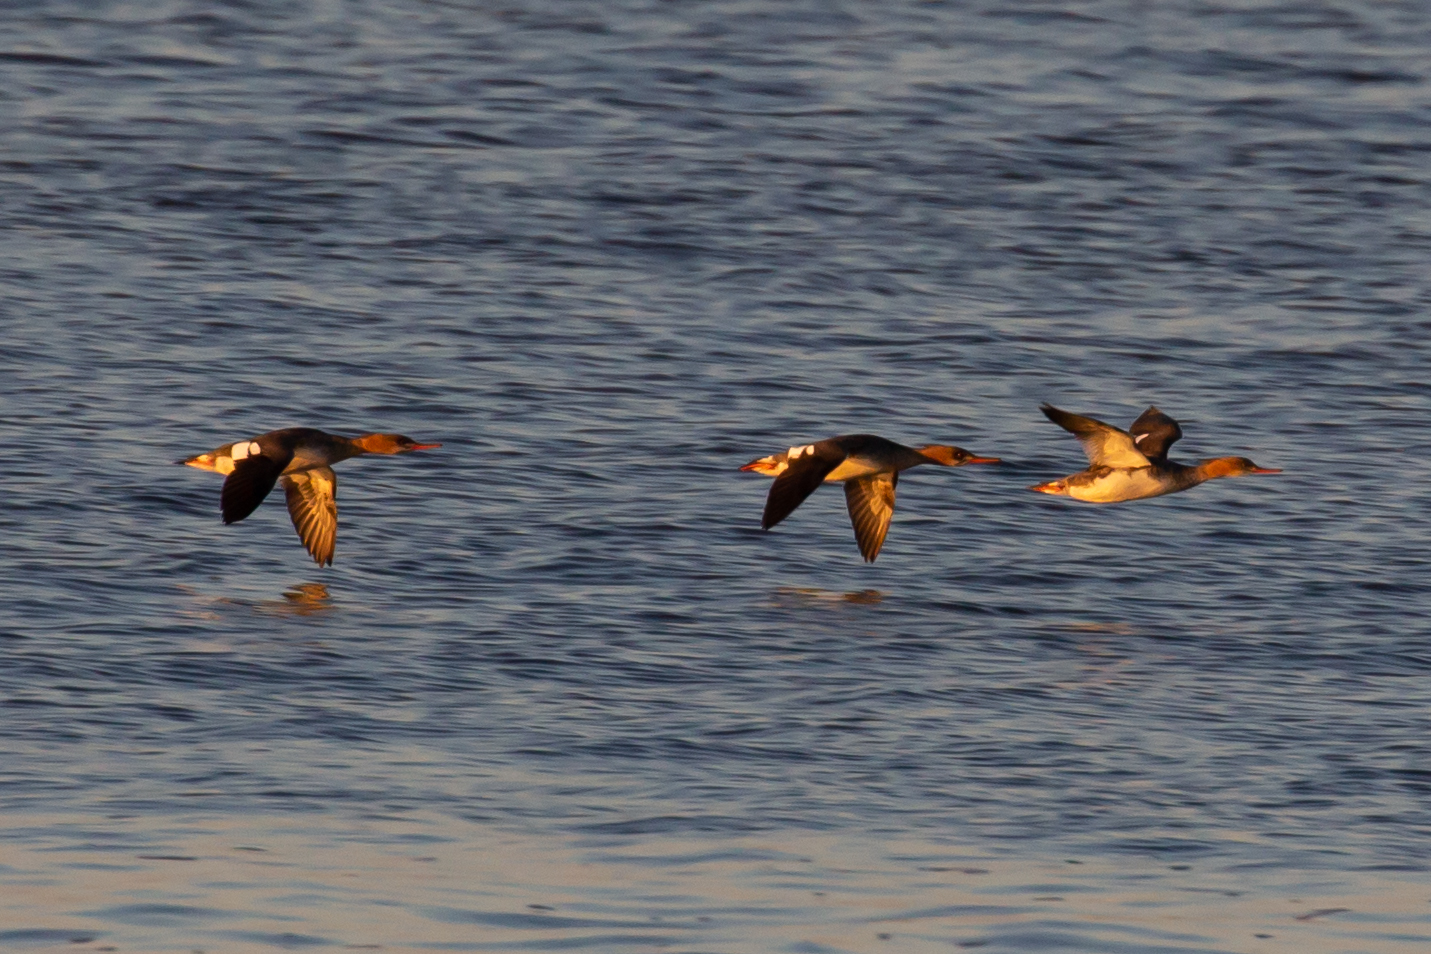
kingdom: Animalia
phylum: Chordata
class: Aves
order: Anseriformes
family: Anatidae
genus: Mergus
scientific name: Mergus serrator
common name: Red-breasted merganser
